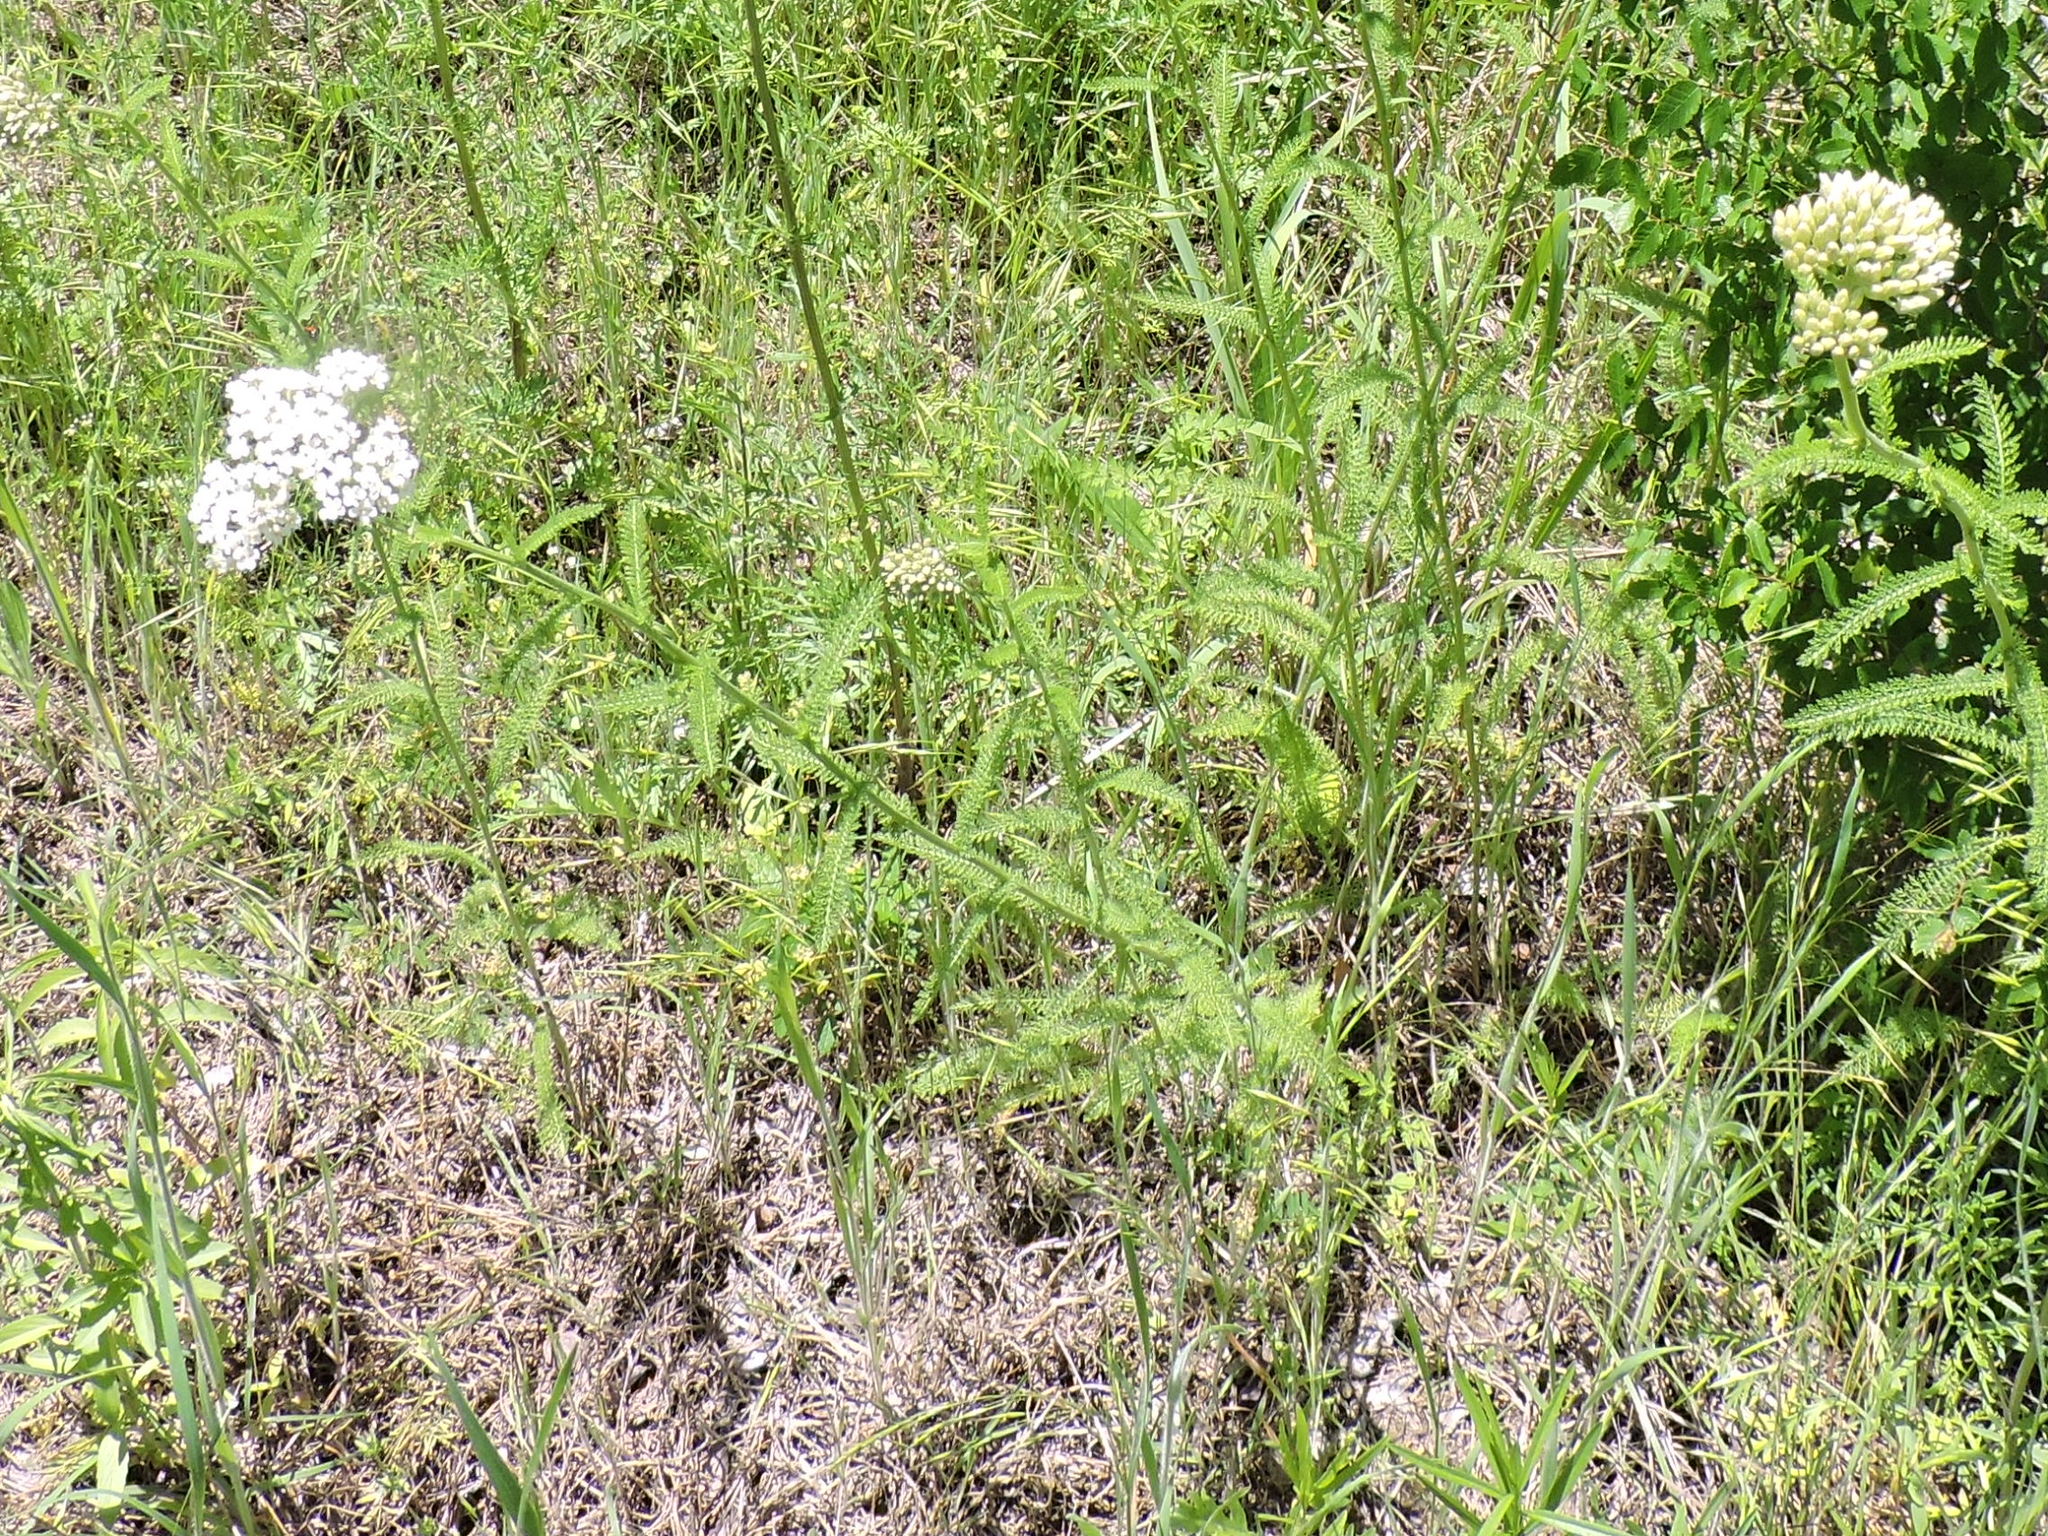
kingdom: Plantae
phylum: Tracheophyta
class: Magnoliopsida
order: Asterales
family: Asteraceae
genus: Achillea
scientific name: Achillea millefolium
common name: Yarrow
